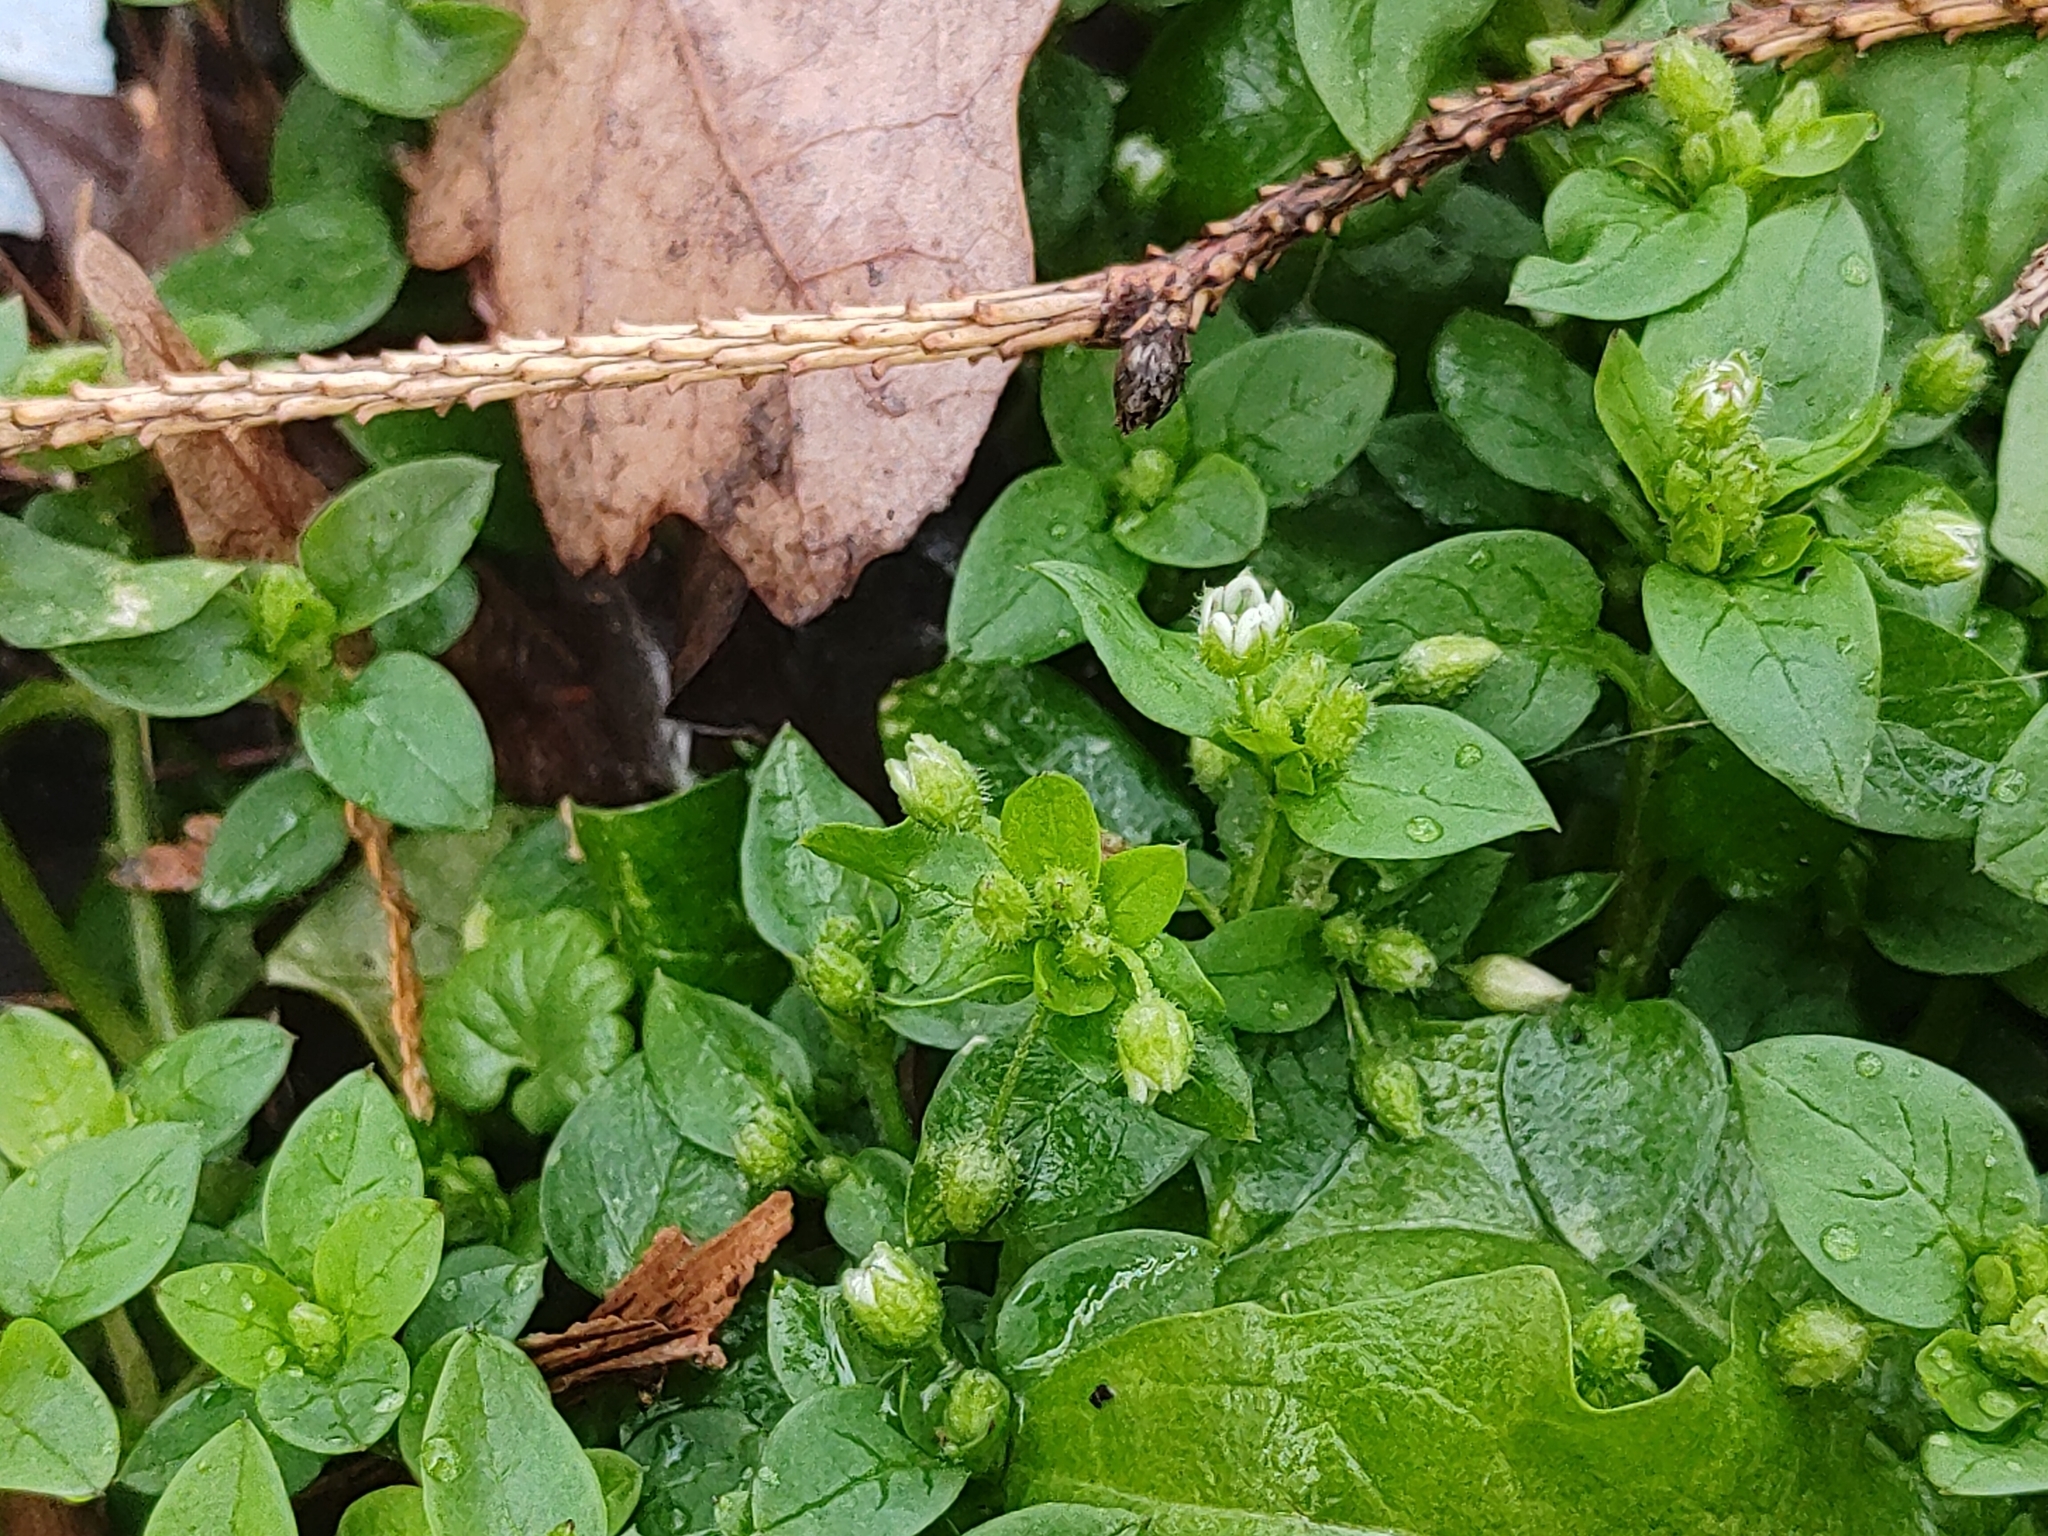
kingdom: Plantae
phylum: Tracheophyta
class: Magnoliopsida
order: Caryophyllales
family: Caryophyllaceae
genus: Stellaria
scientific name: Stellaria media
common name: Common chickweed
